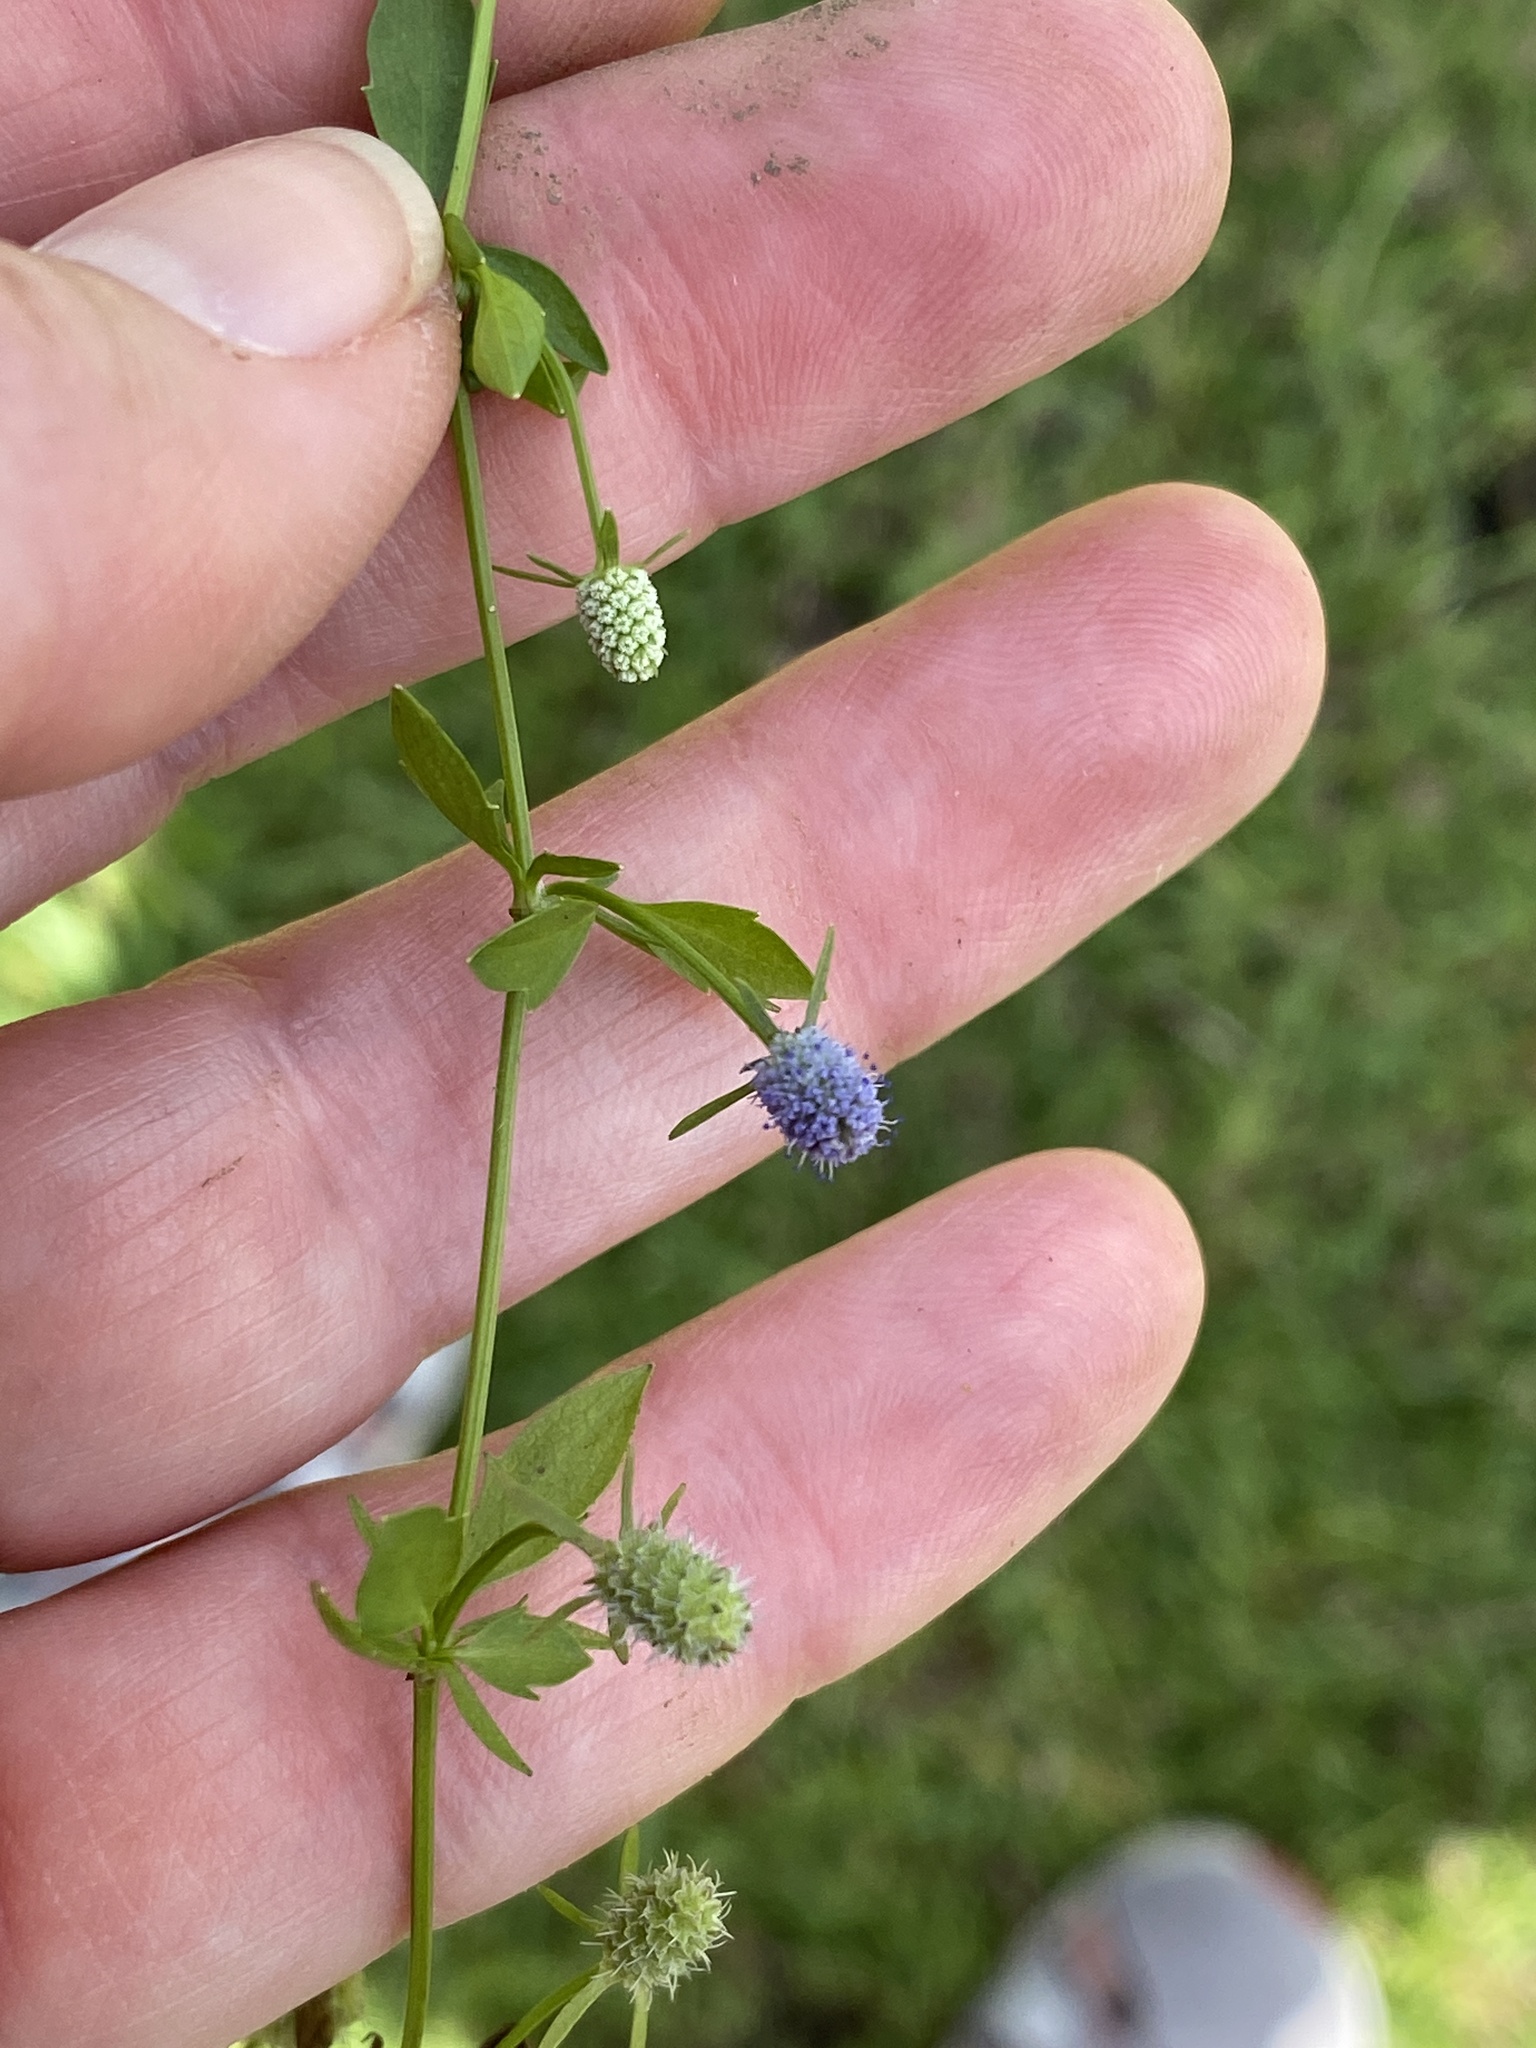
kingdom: Plantae
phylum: Tracheophyta
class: Magnoliopsida
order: Apiales
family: Apiaceae
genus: Eryngium
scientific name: Eryngium prostratum
